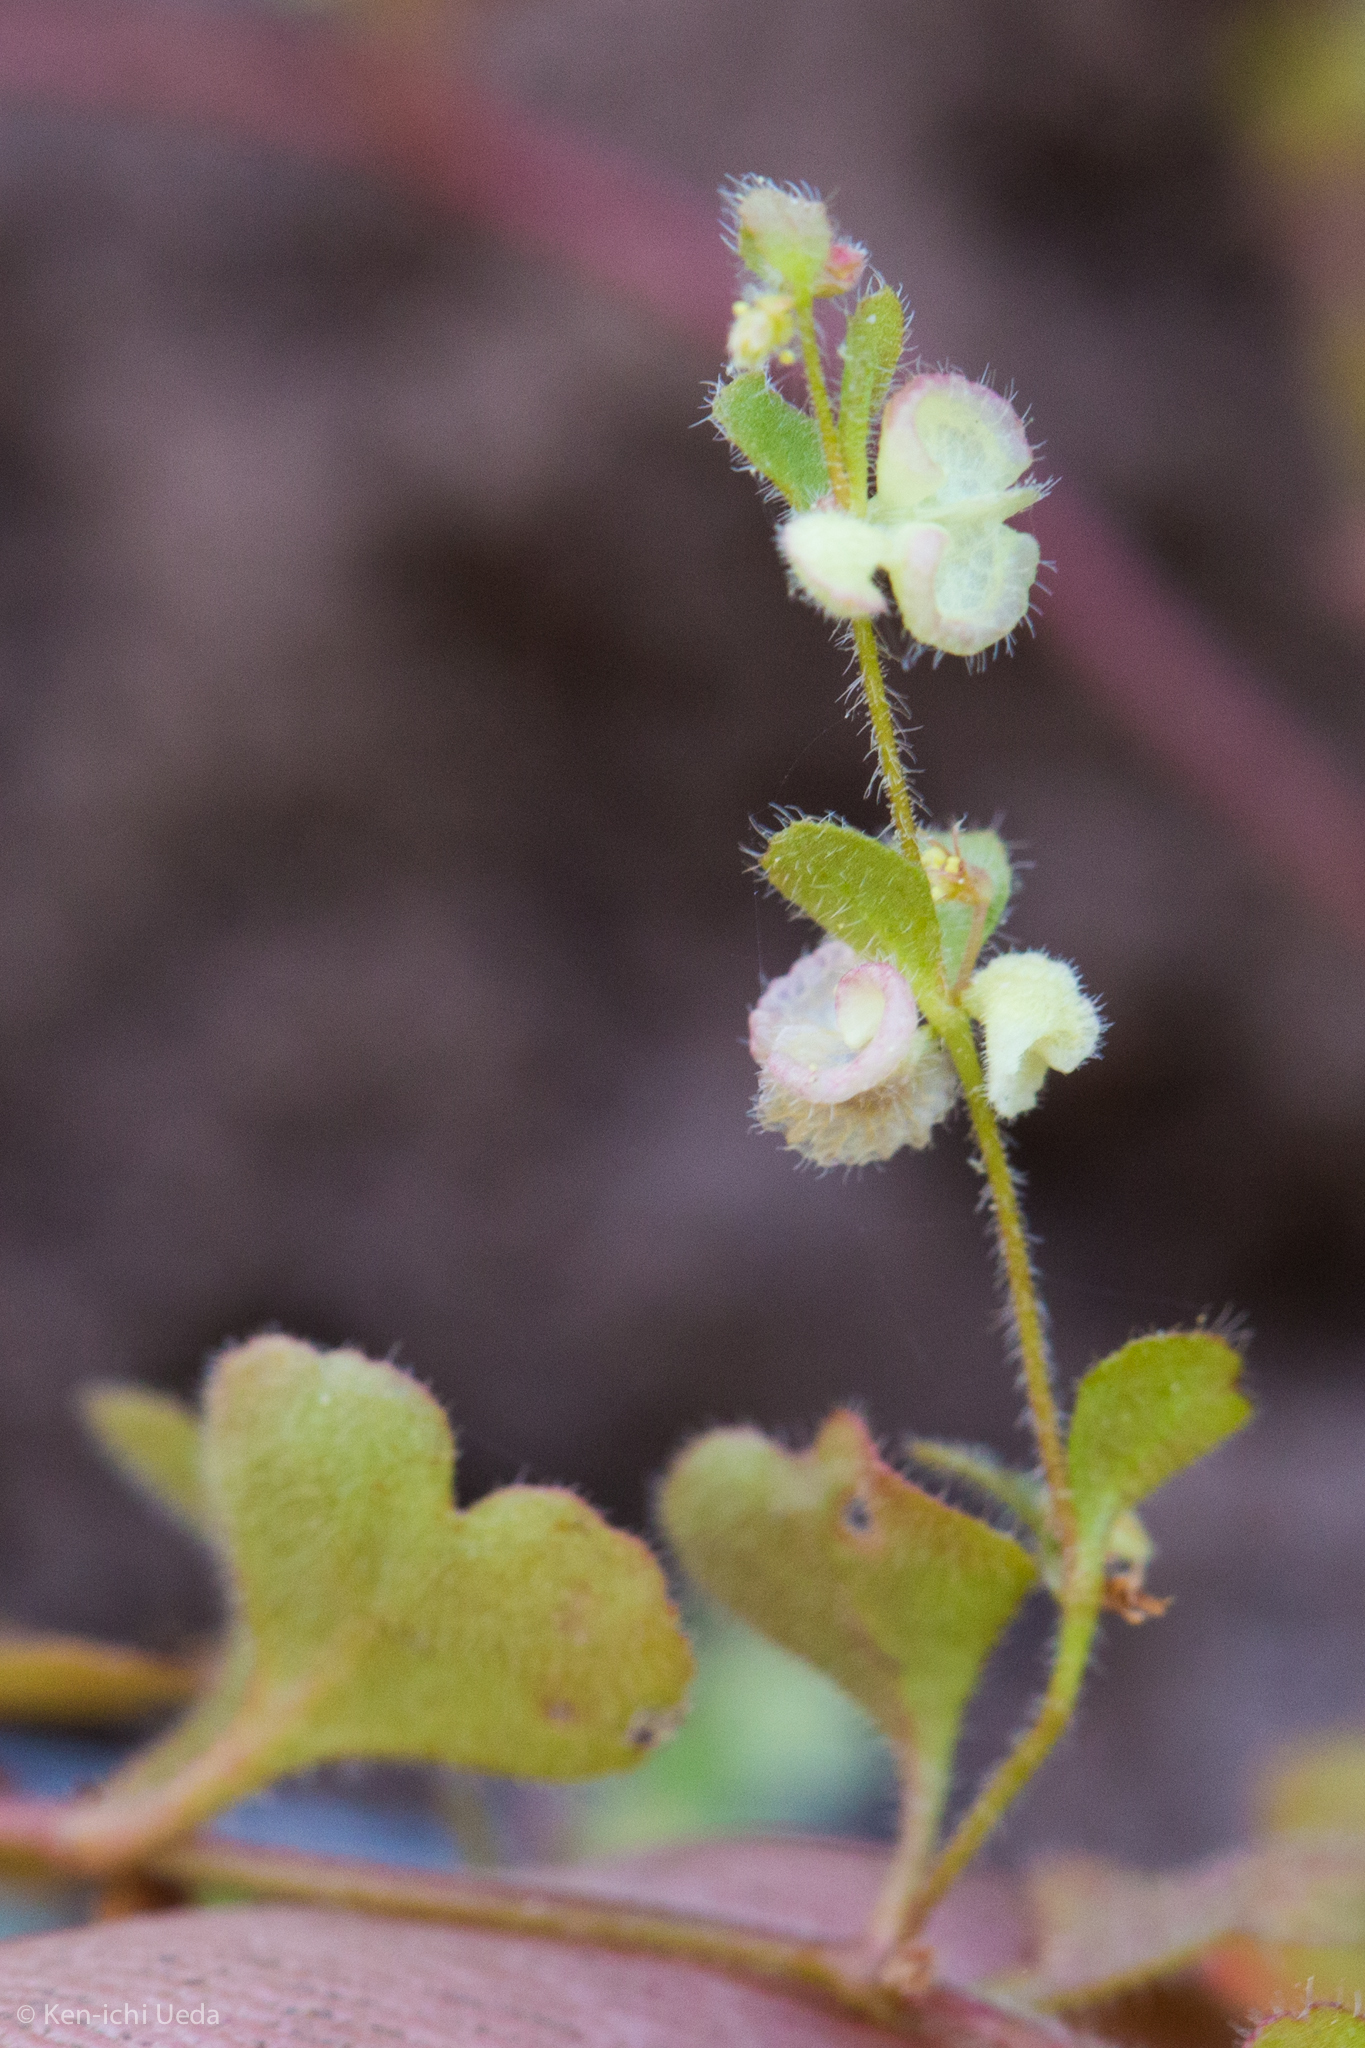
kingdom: Plantae
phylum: Tracheophyta
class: Magnoliopsida
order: Caryophyllales
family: Polygonaceae
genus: Pterostegia
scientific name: Pterostegia drymarioides
